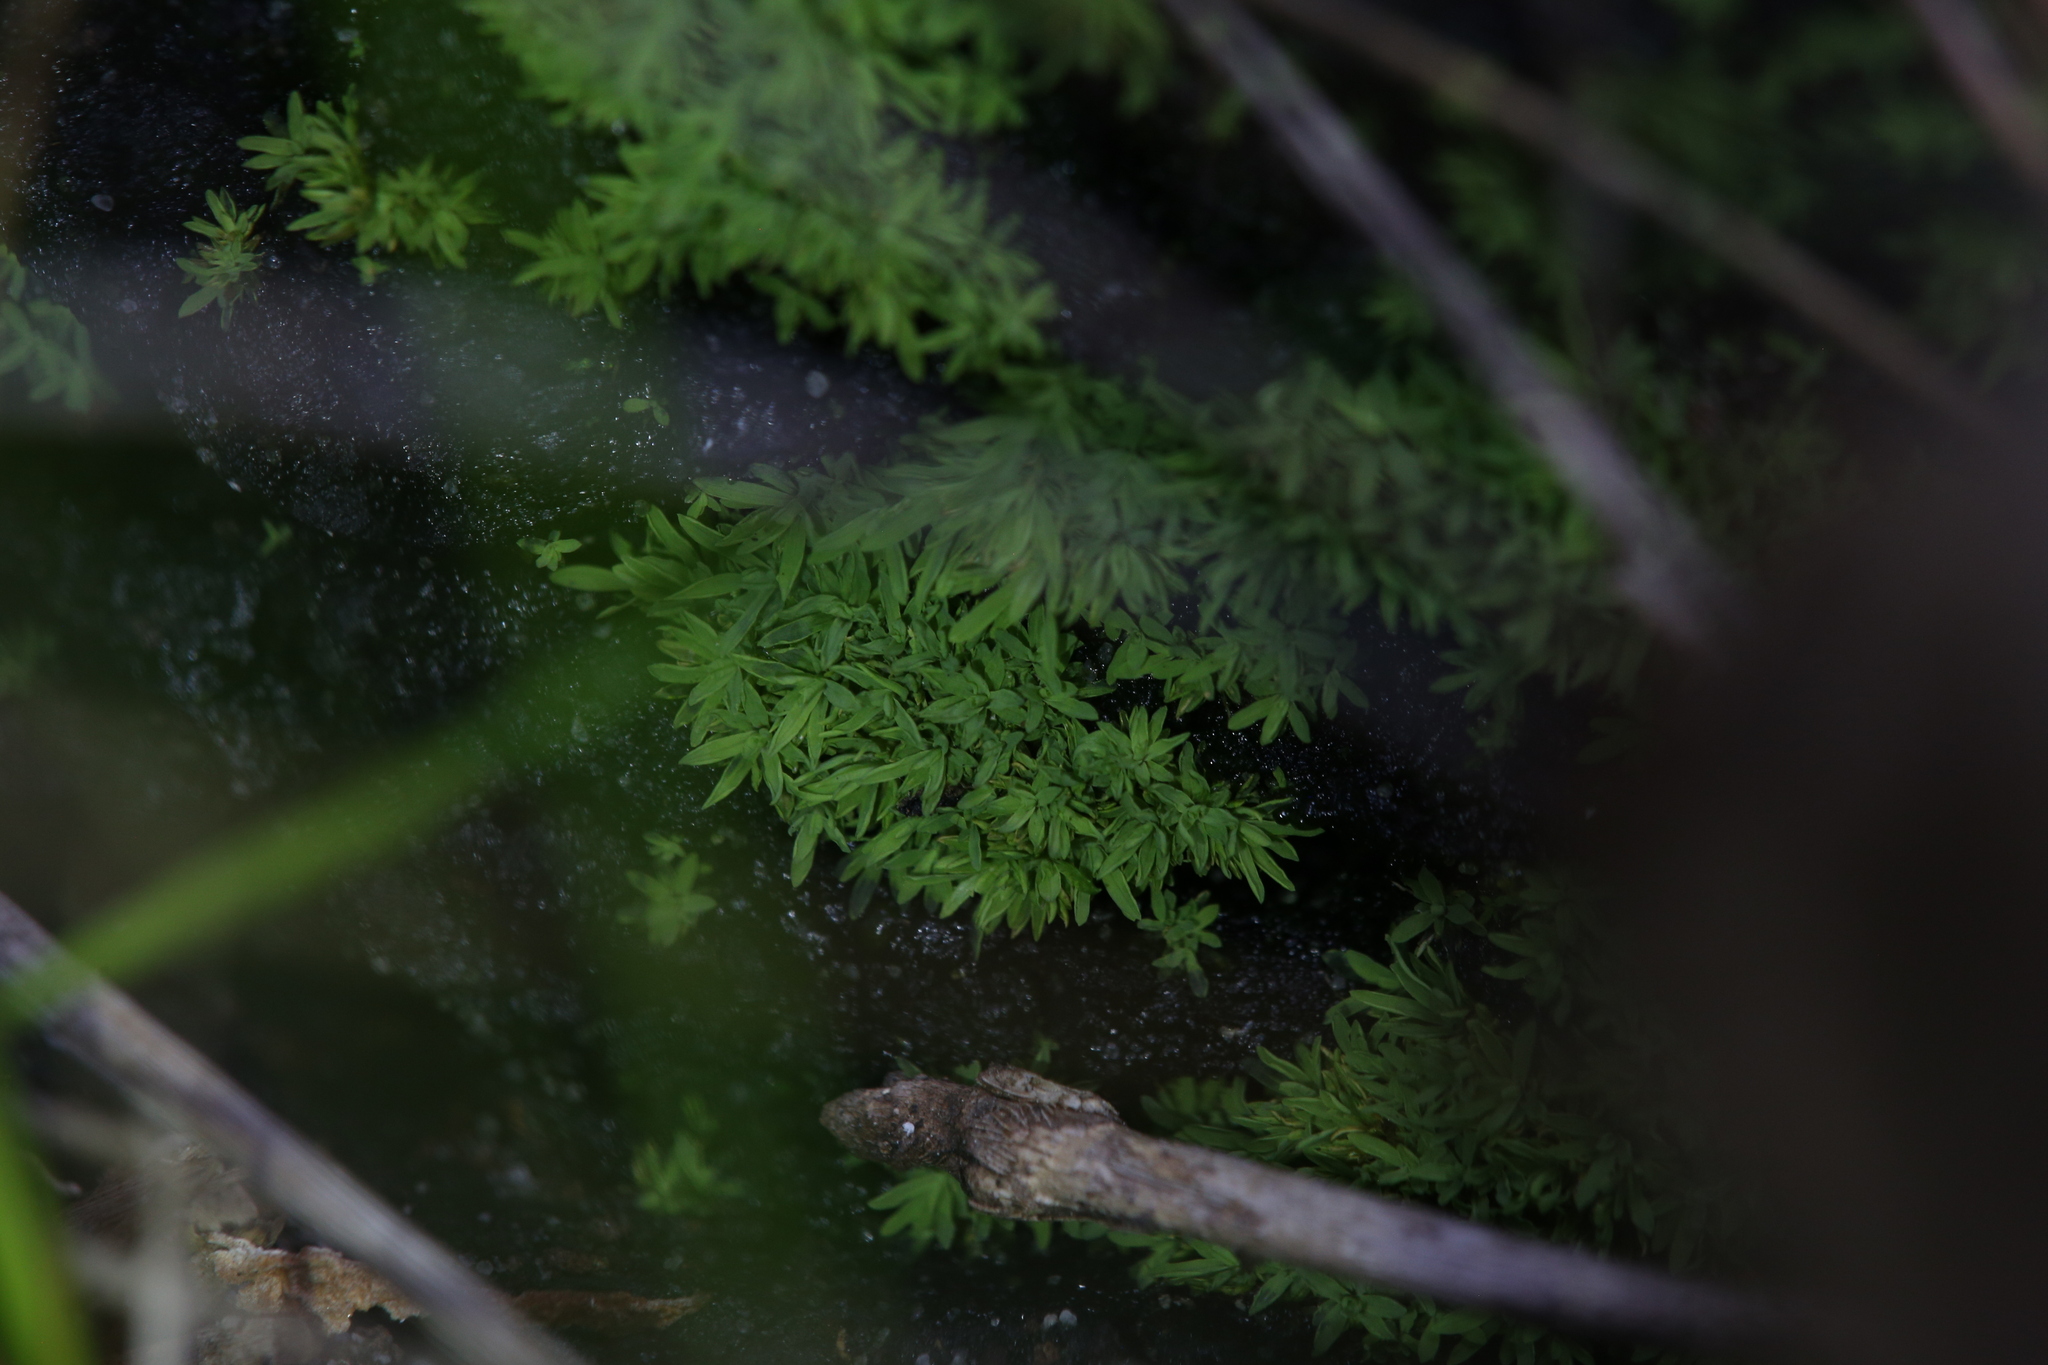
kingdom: Plantae
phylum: Bryophyta
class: Bryopsida
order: Pottiales
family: Pottiaceae
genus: Calymperastrum
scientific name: Calymperastrum latifolium
